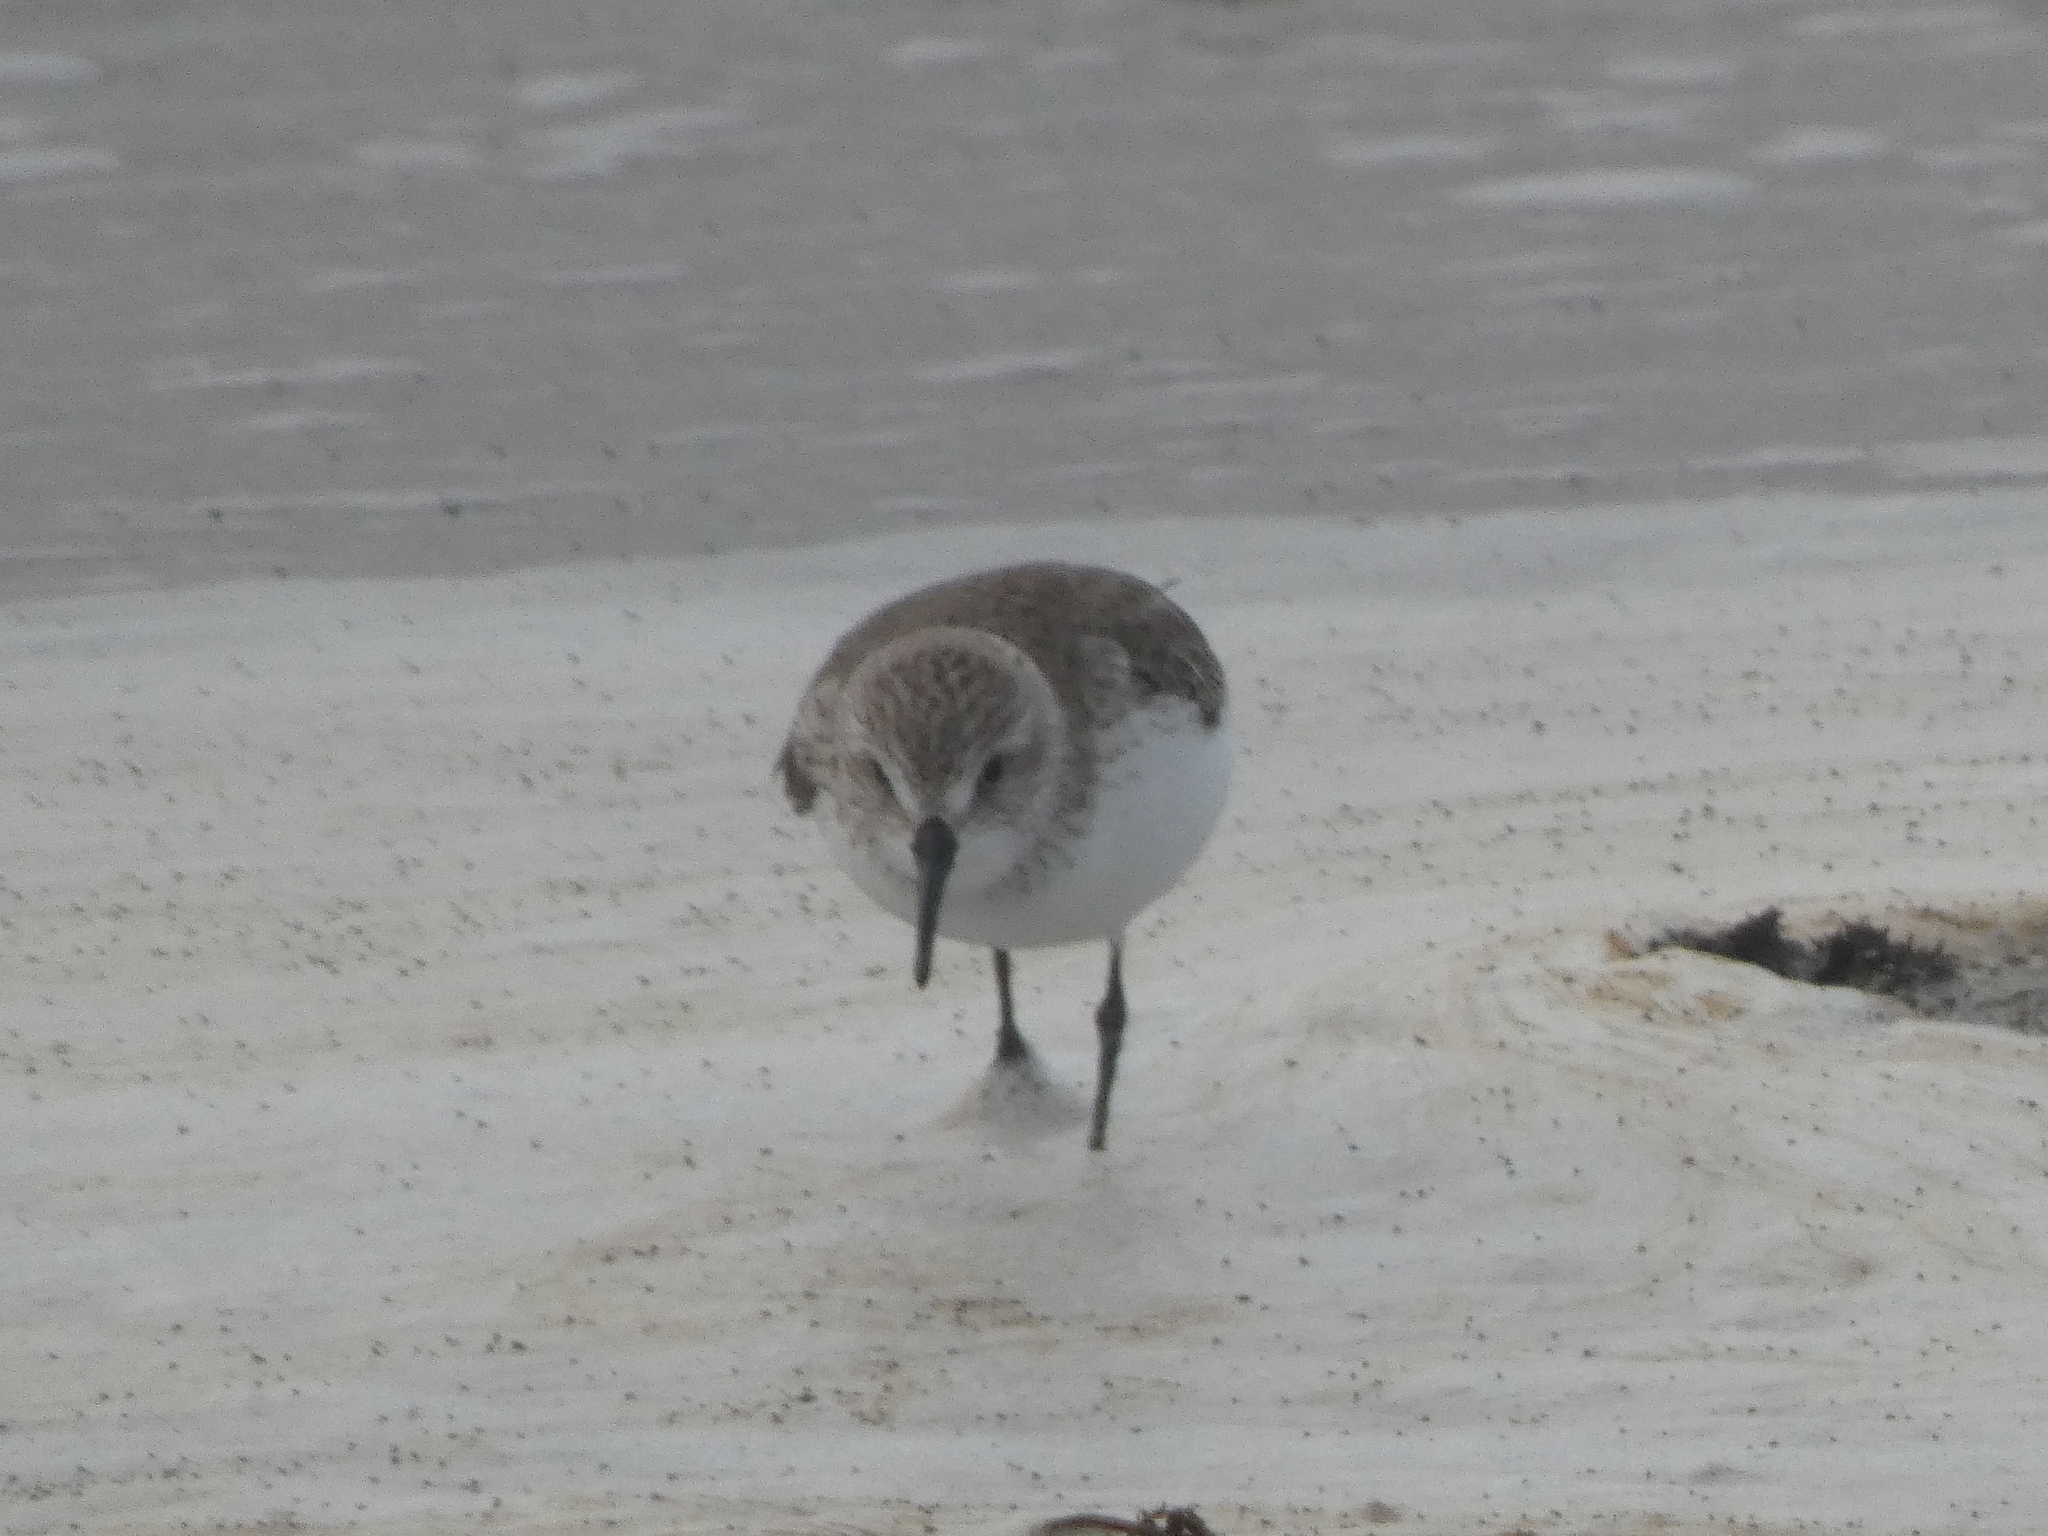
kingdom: Animalia
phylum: Chordata
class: Aves
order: Charadriiformes
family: Scolopacidae
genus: Calidris
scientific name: Calidris mauri
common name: Western sandpiper
